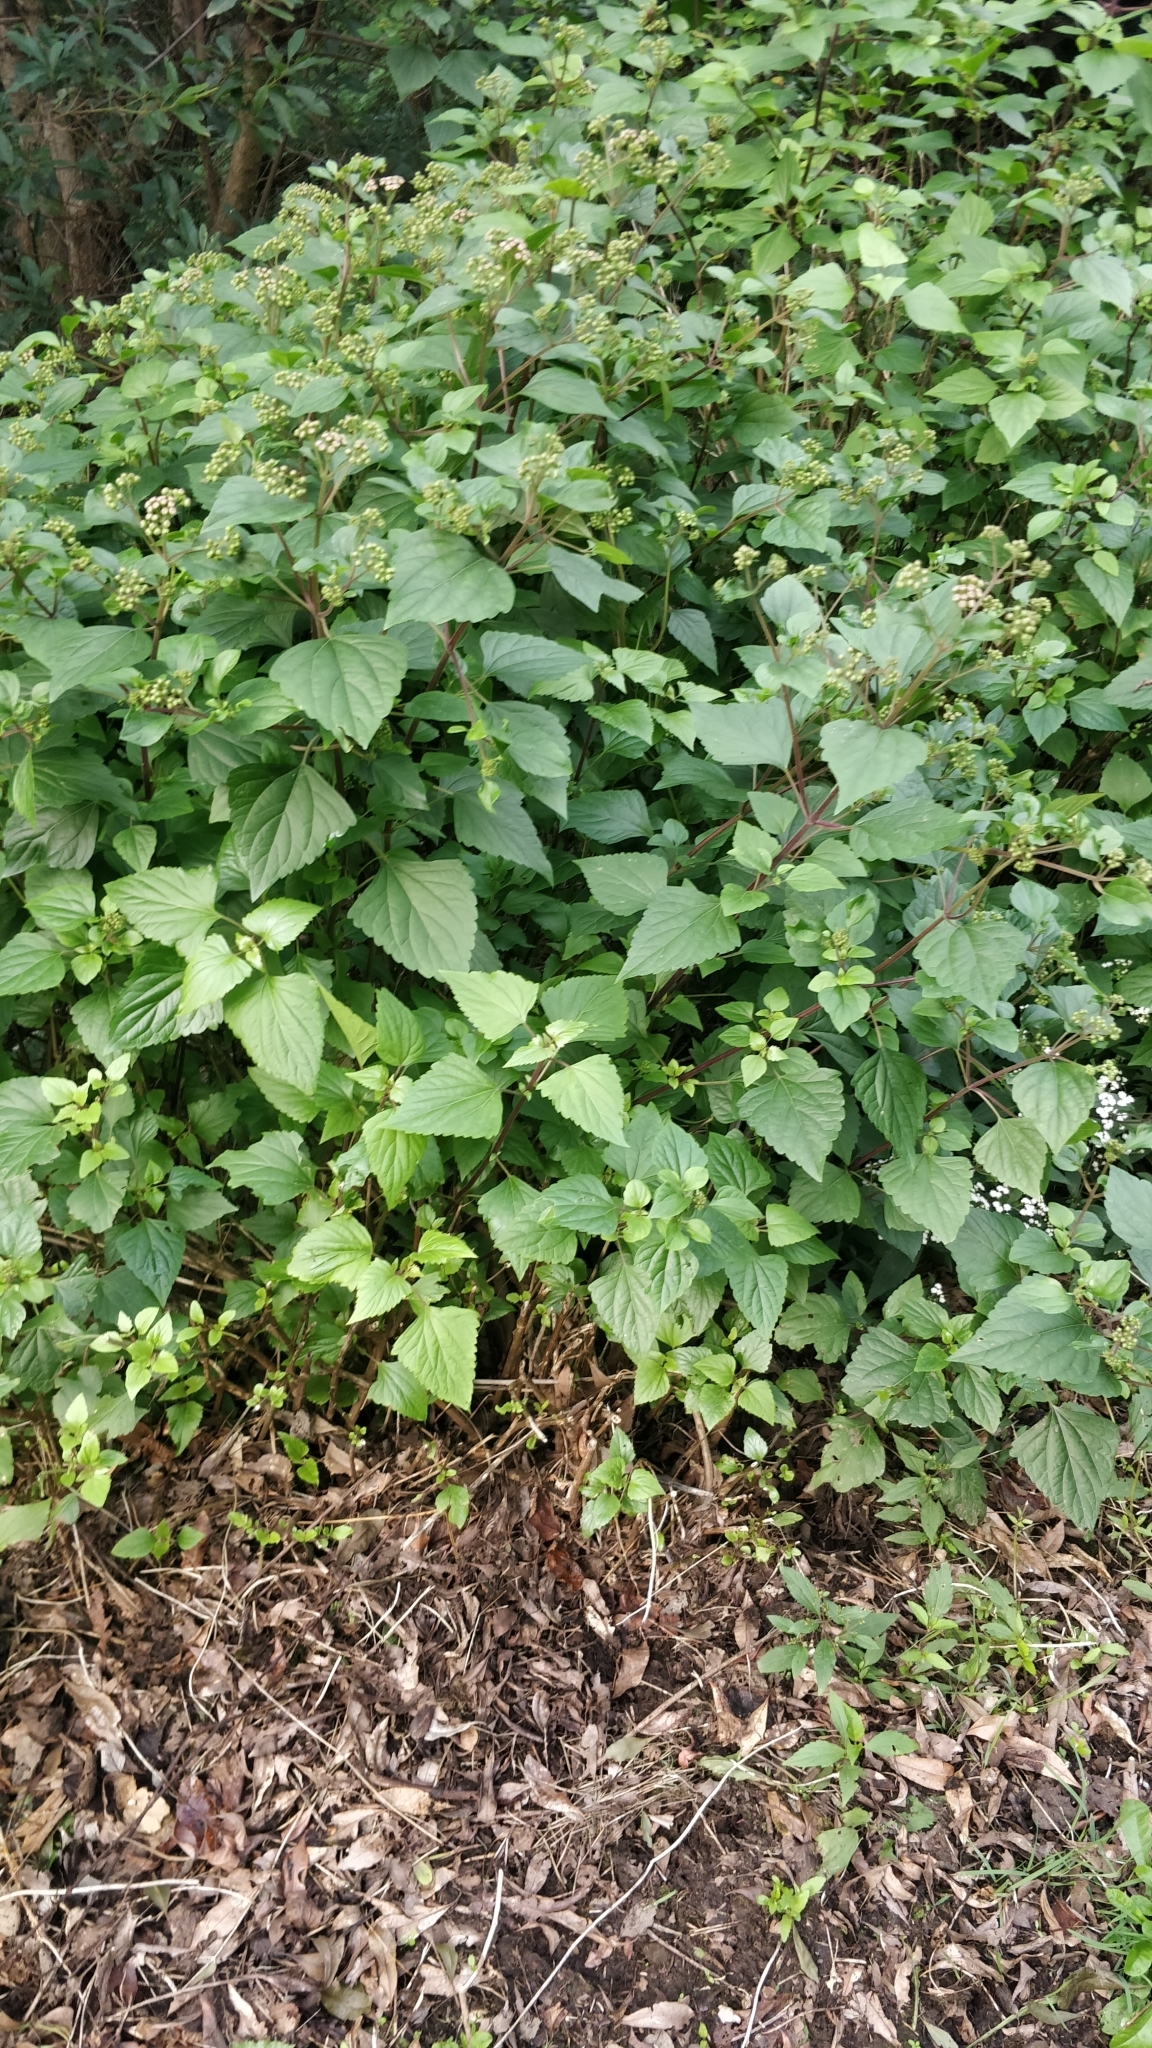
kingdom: Plantae
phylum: Tracheophyta
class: Magnoliopsida
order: Asterales
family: Asteraceae
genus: Ageratina
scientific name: Ageratina adenophora
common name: Sticky snakeroot
